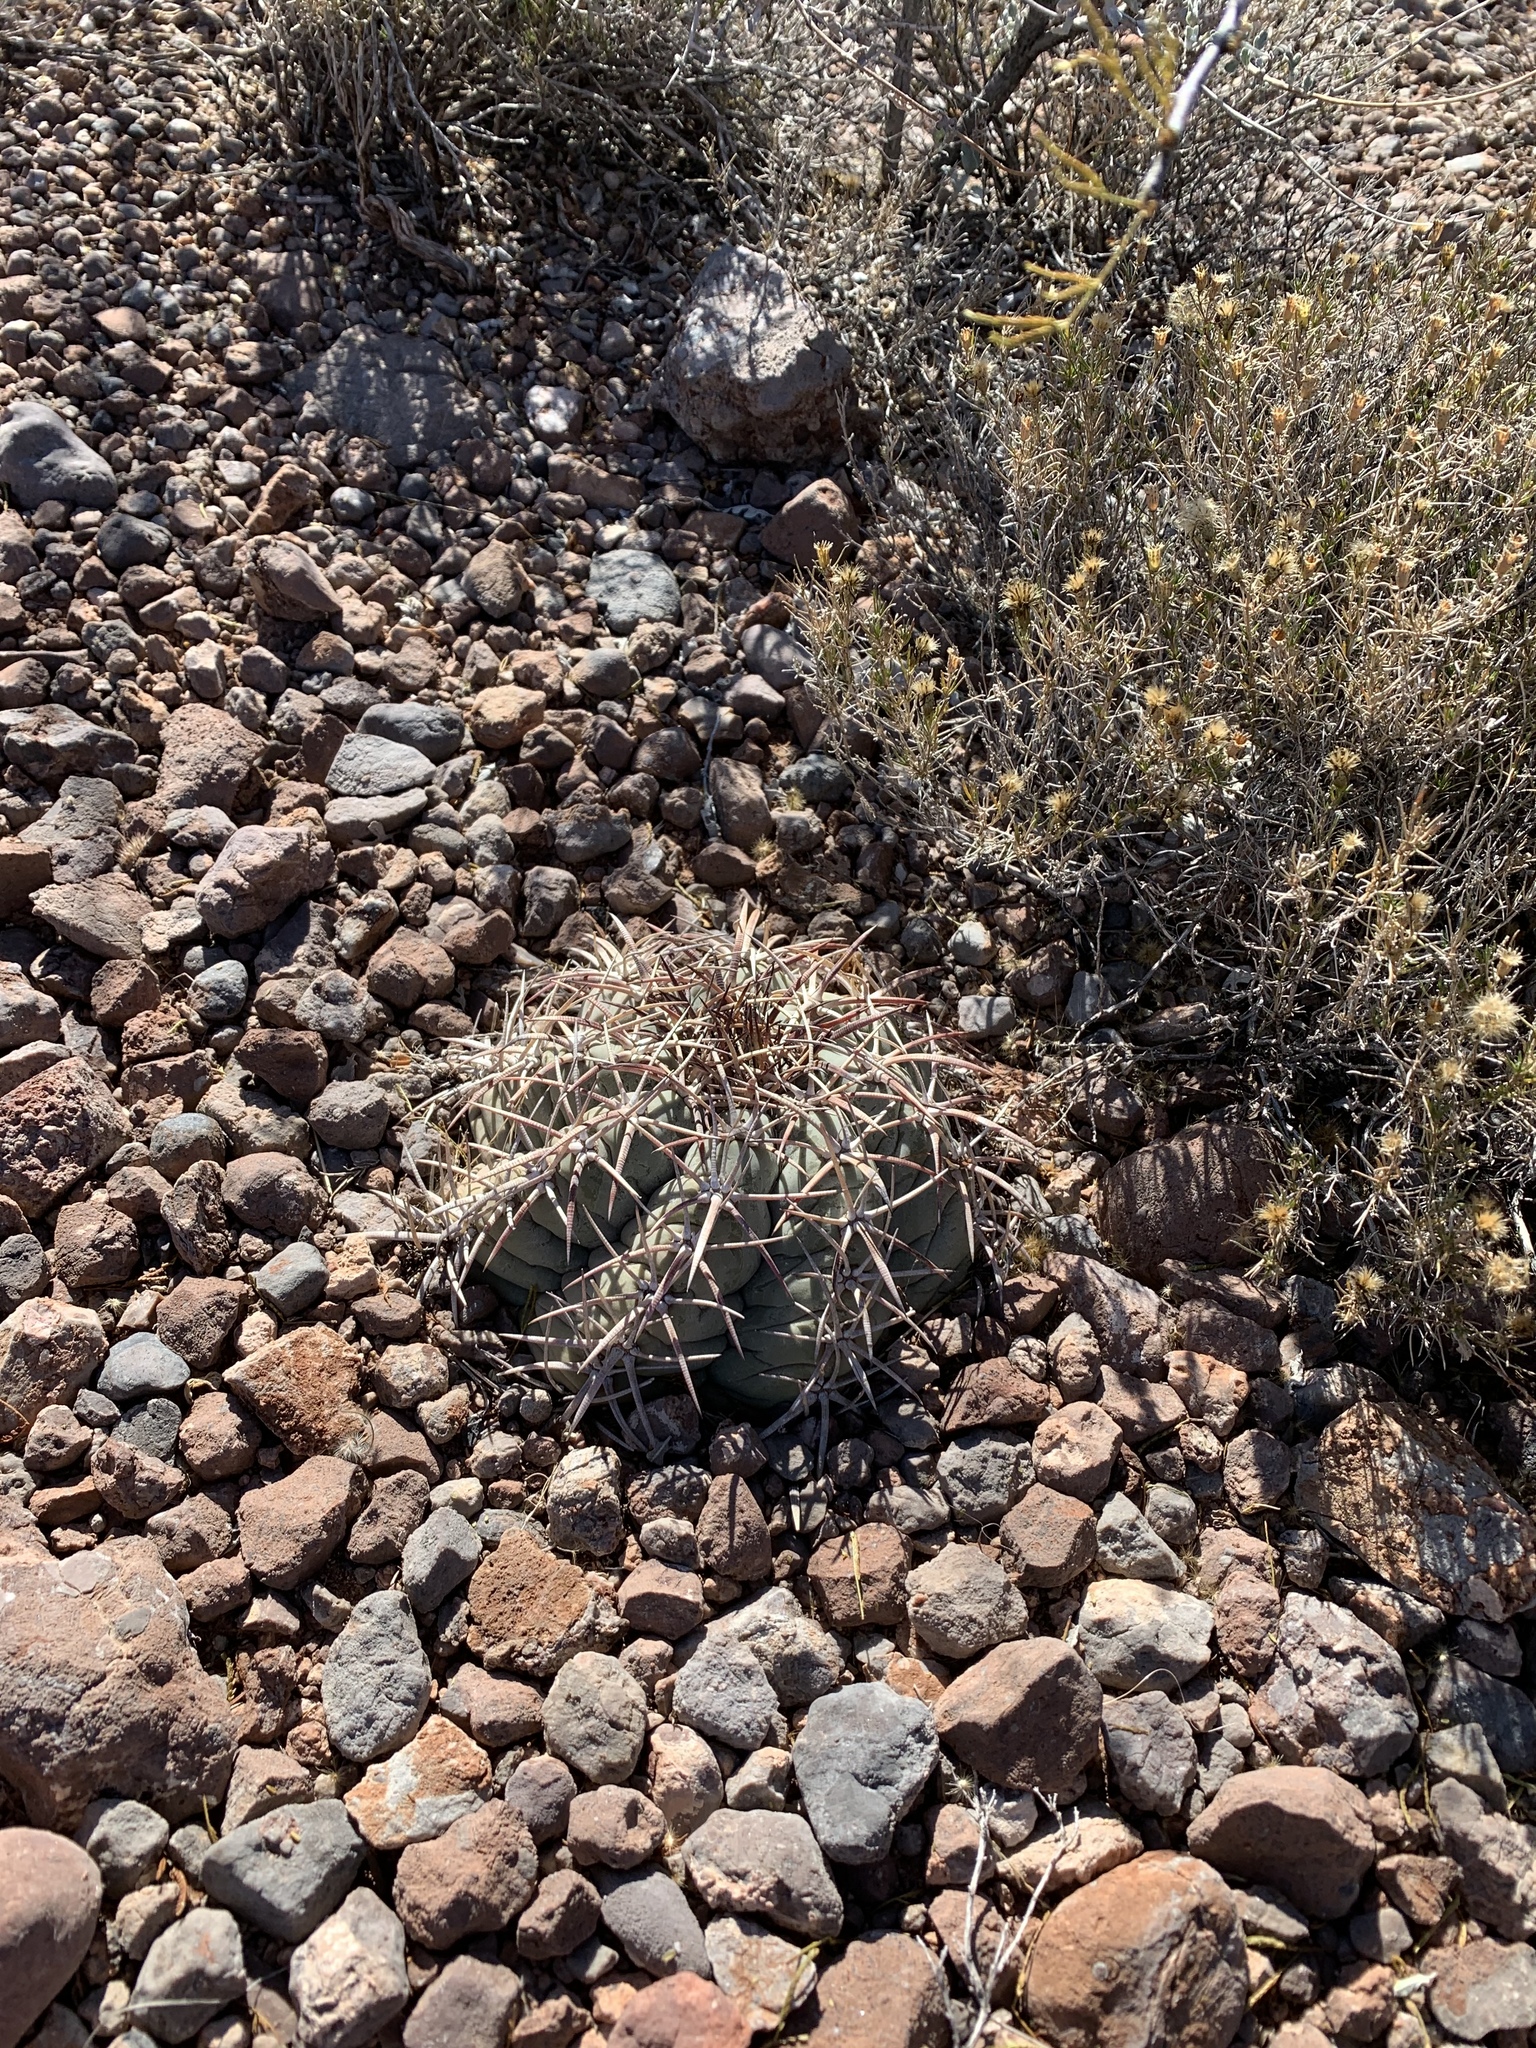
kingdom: Plantae
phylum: Tracheophyta
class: Magnoliopsida
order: Caryophyllales
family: Cactaceae
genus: Echinocactus
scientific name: Echinocactus horizonthalonius
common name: Devilshead
